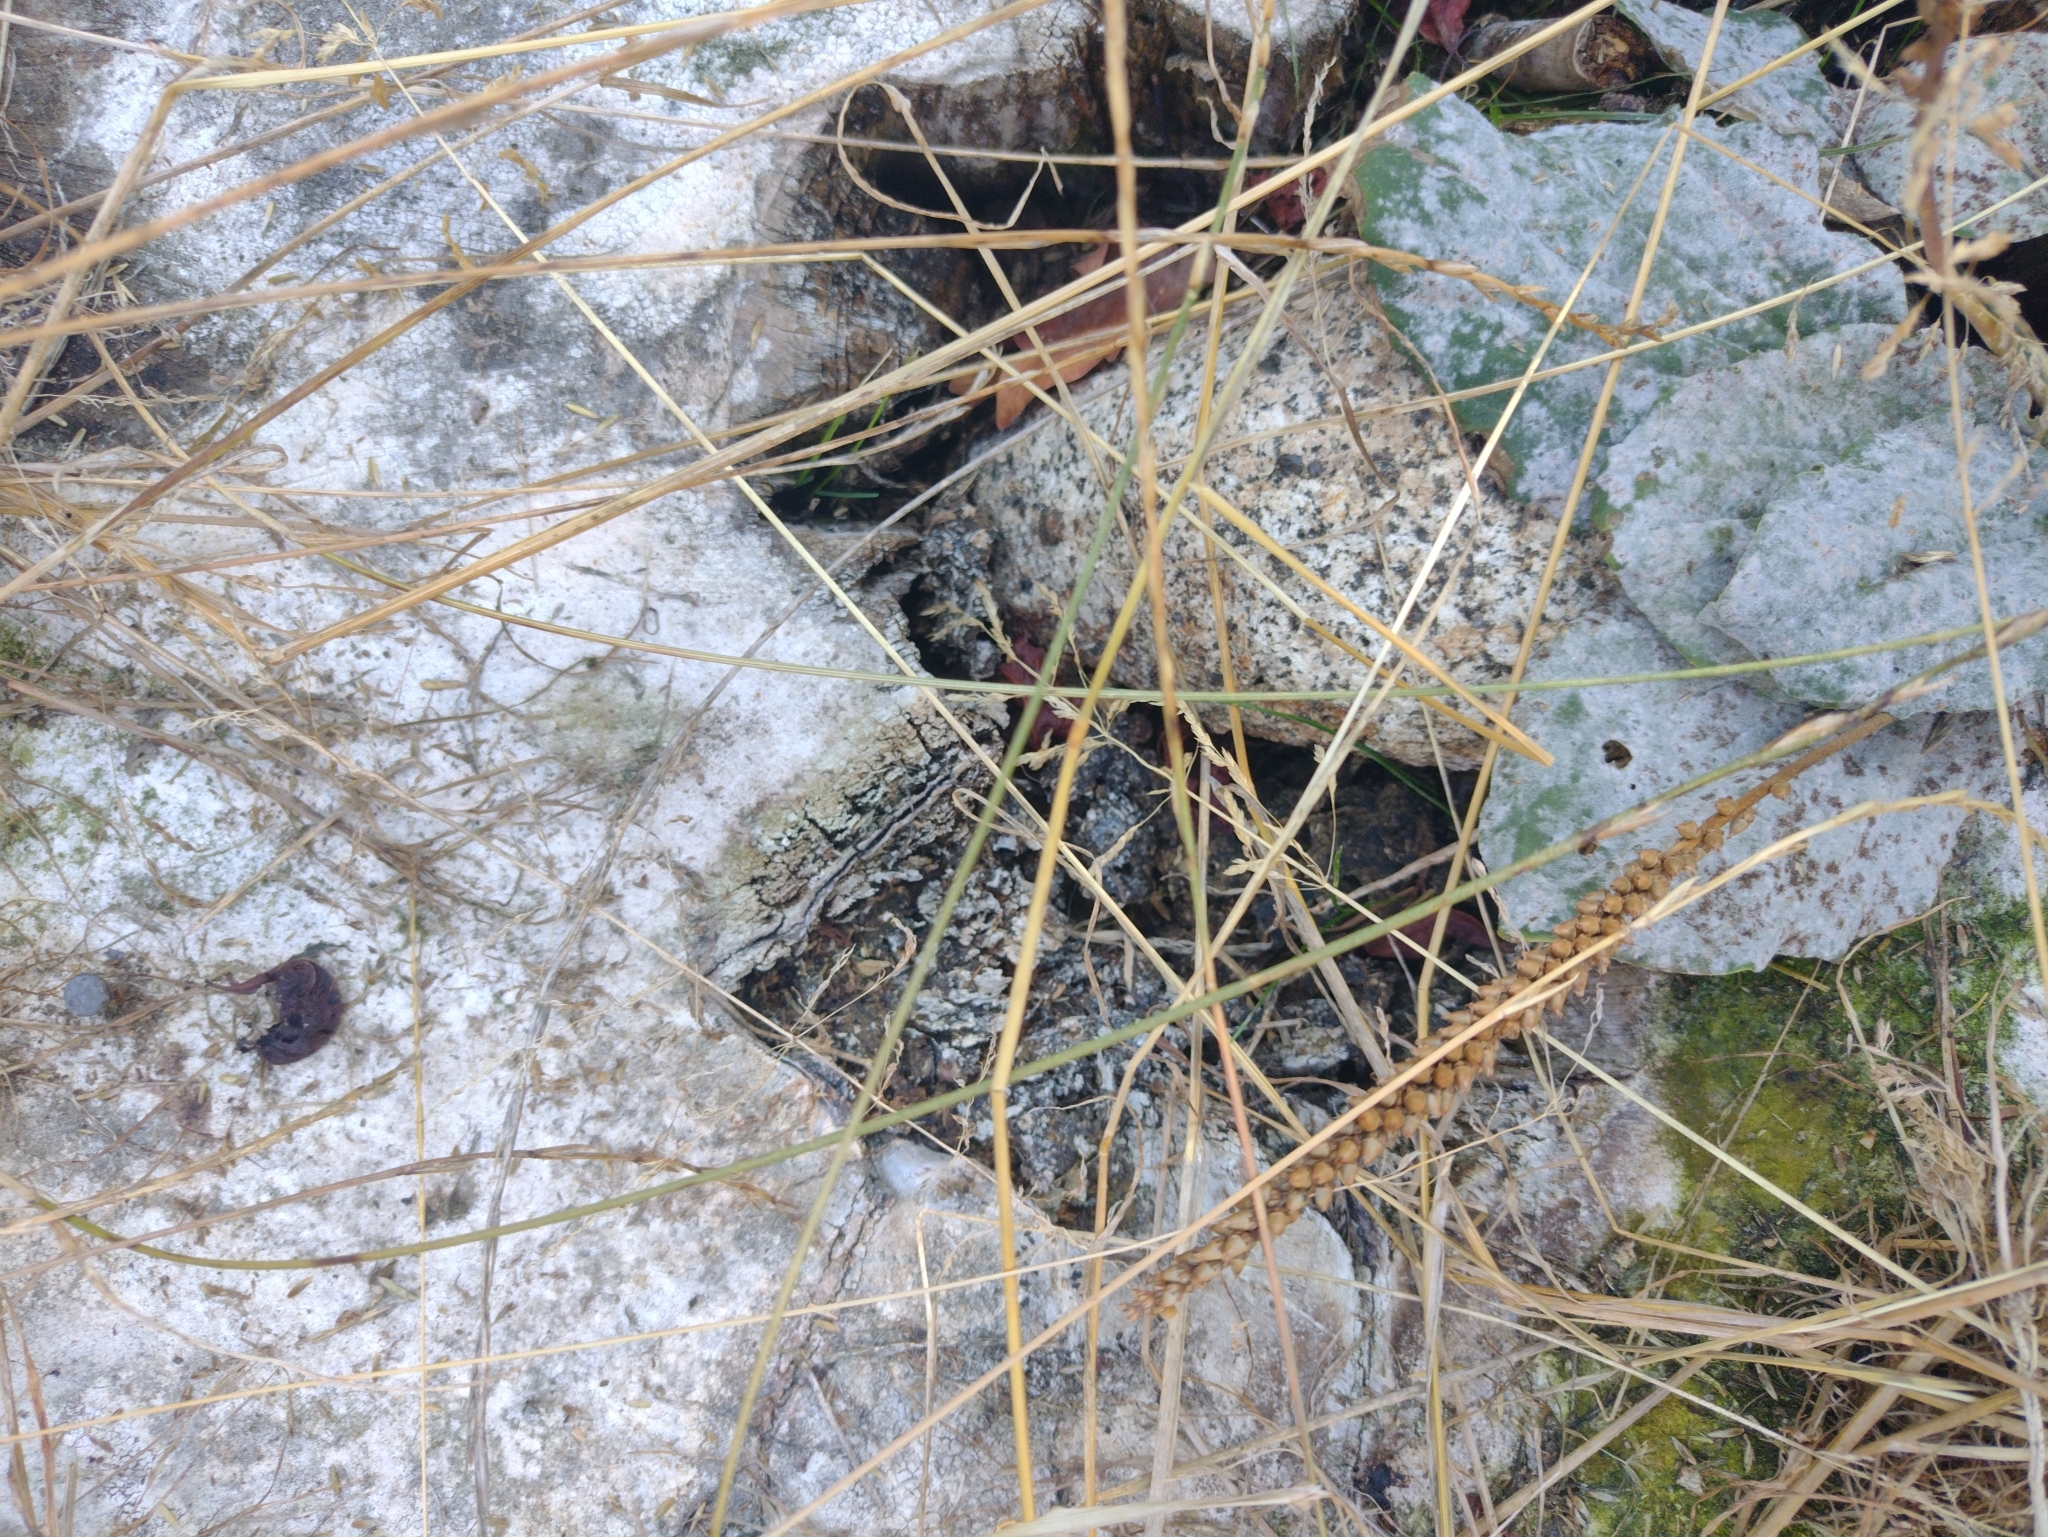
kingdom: Plantae
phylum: Tracheophyta
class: Magnoliopsida
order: Lamiales
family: Plantaginaceae
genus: Plantago
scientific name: Plantago major
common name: Common plantain
